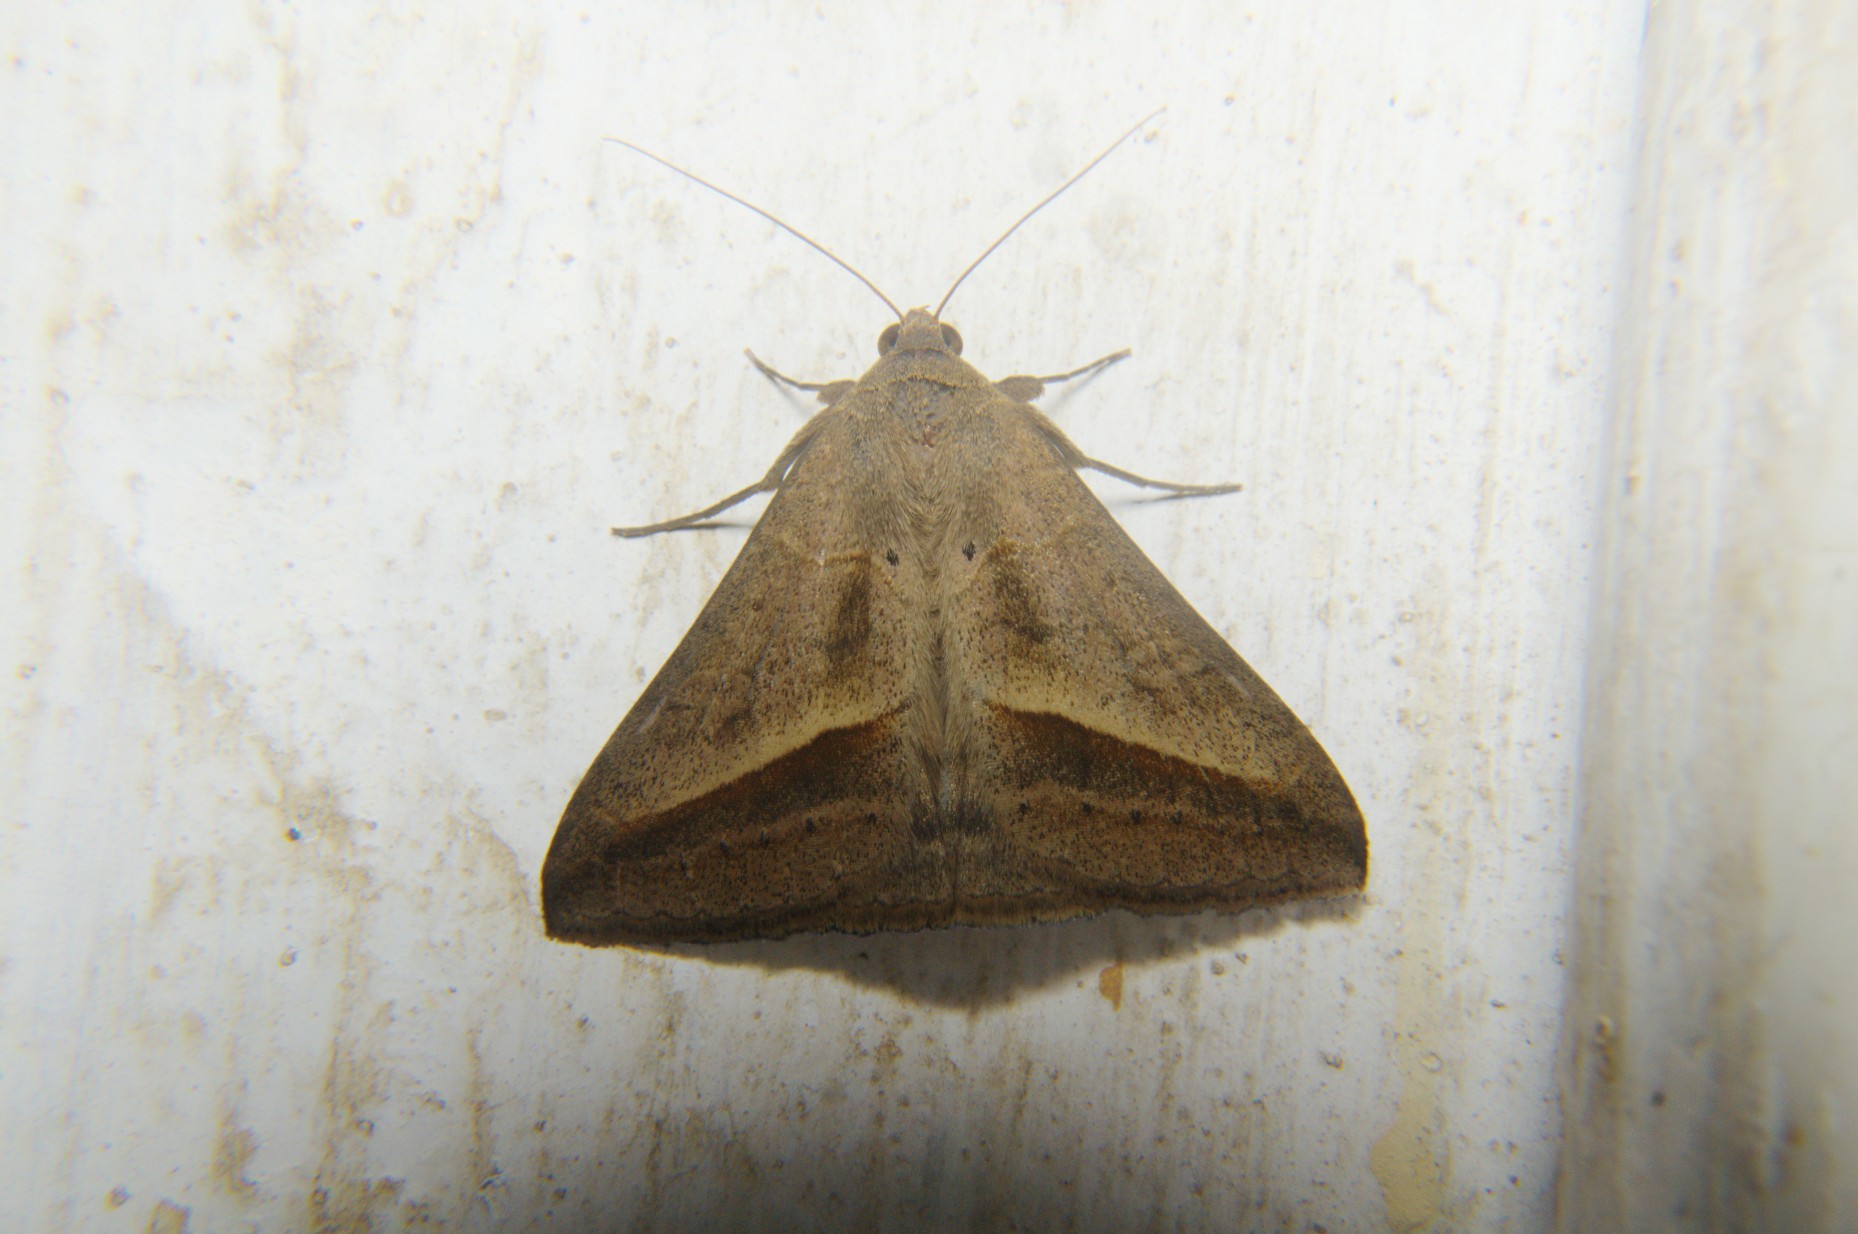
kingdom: Animalia
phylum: Arthropoda
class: Insecta
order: Lepidoptera
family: Erebidae
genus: Mocis
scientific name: Mocis frugalis
